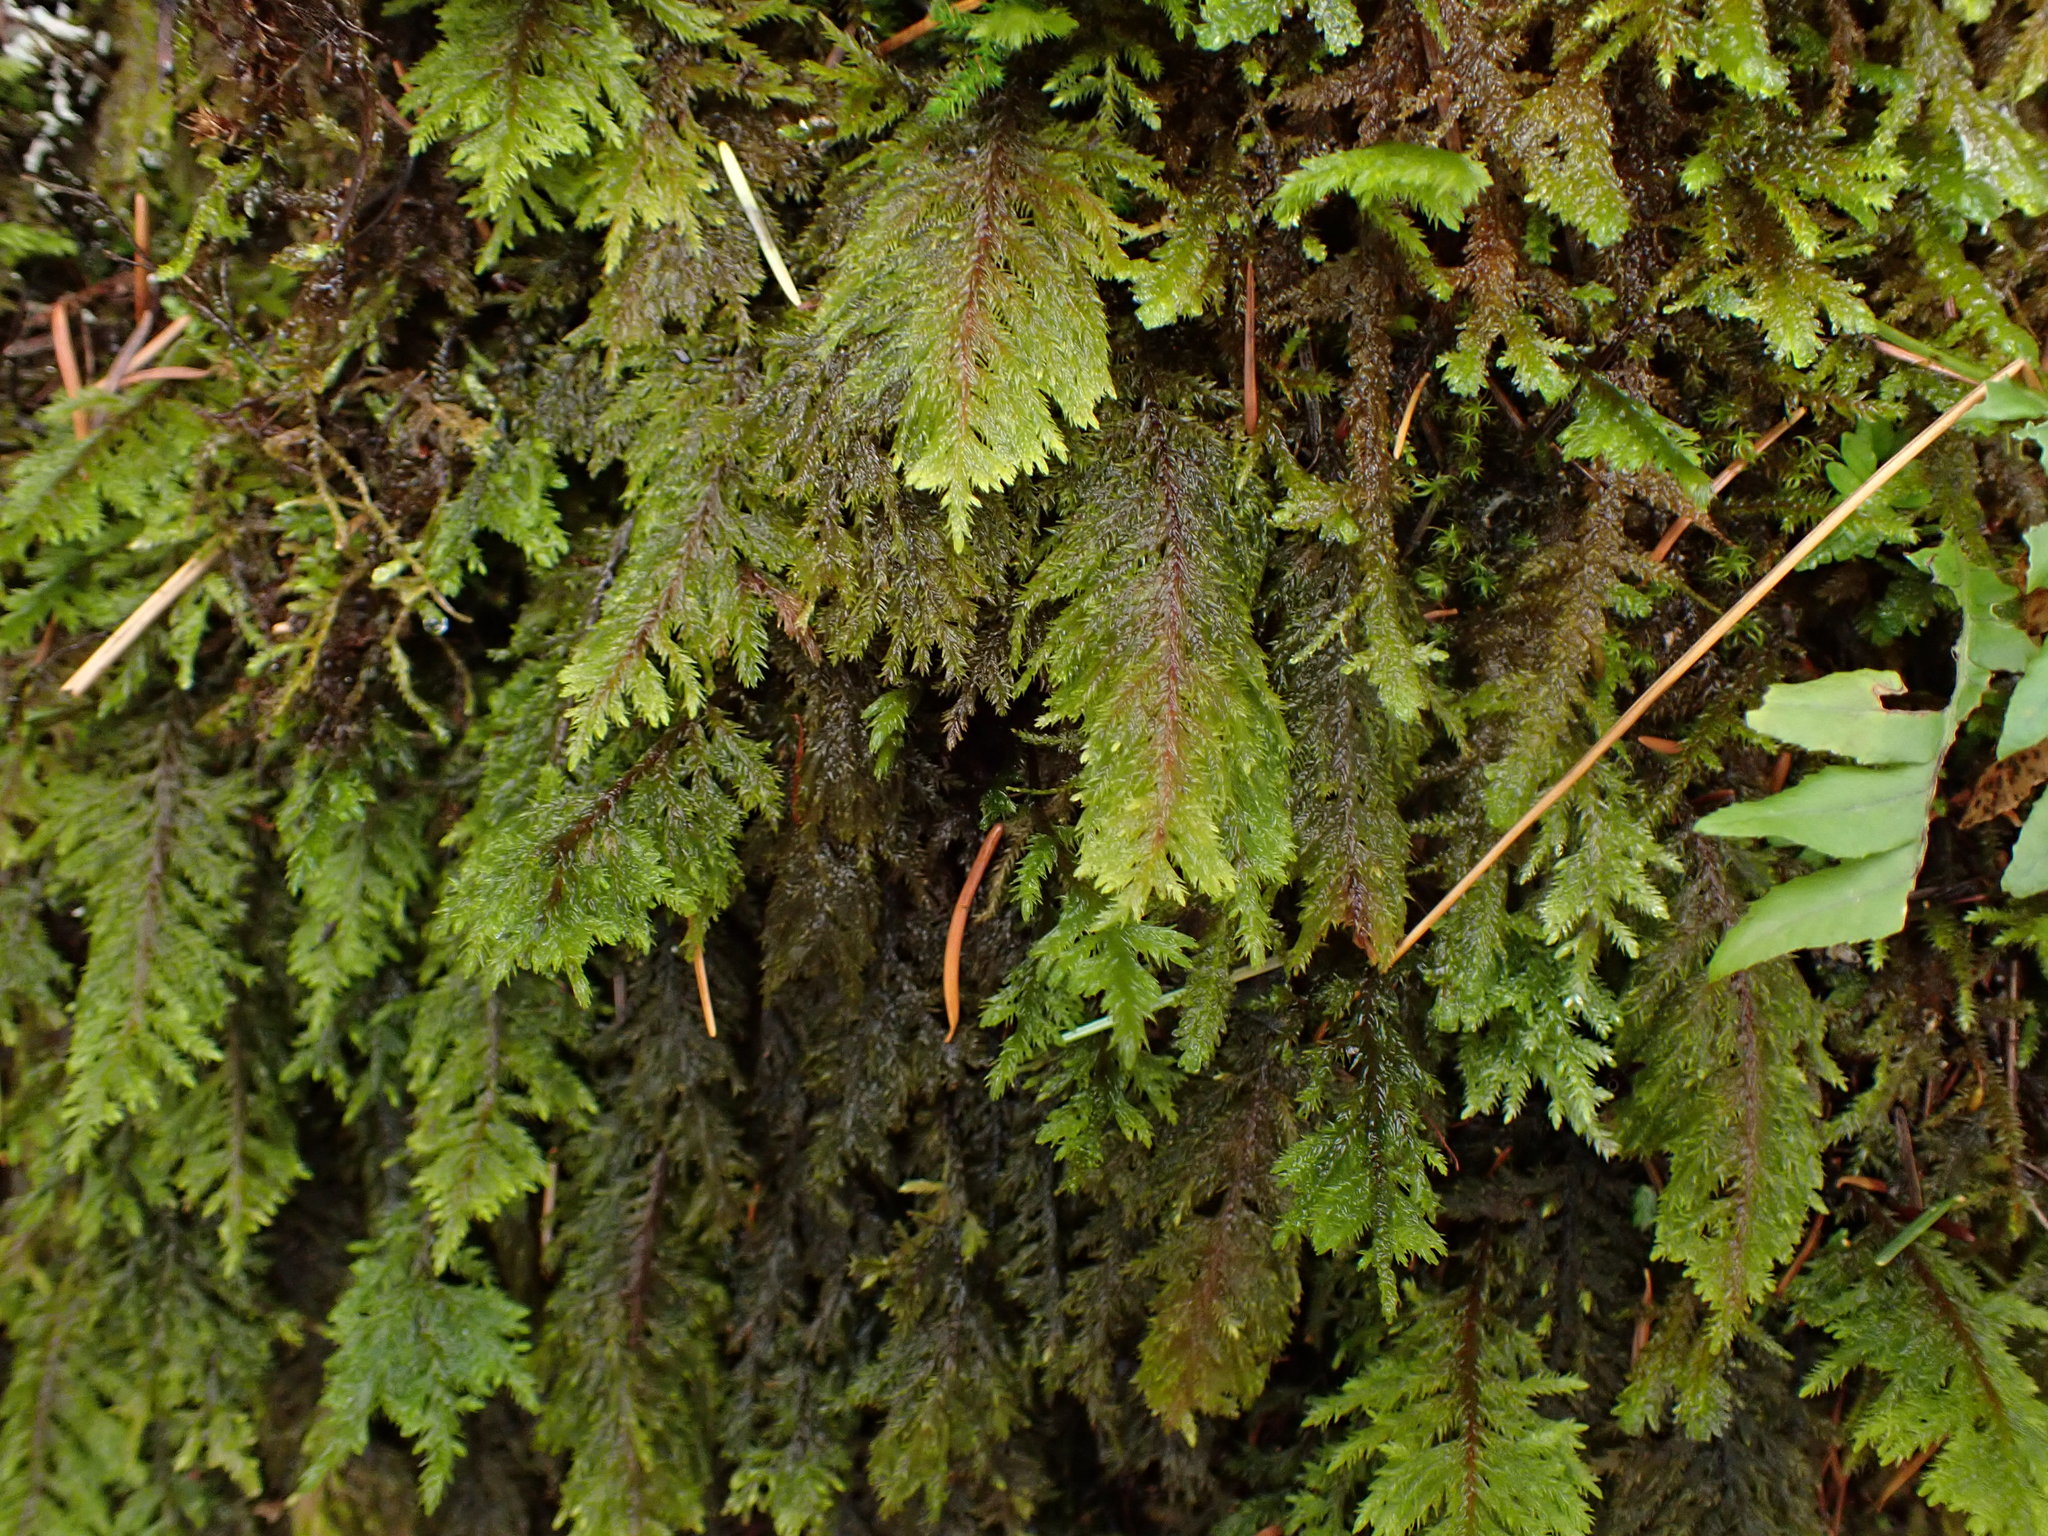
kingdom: Plantae
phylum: Bryophyta
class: Bryopsida
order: Hypnales
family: Cryphaeaceae
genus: Dendroalsia
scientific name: Dendroalsia abietina
